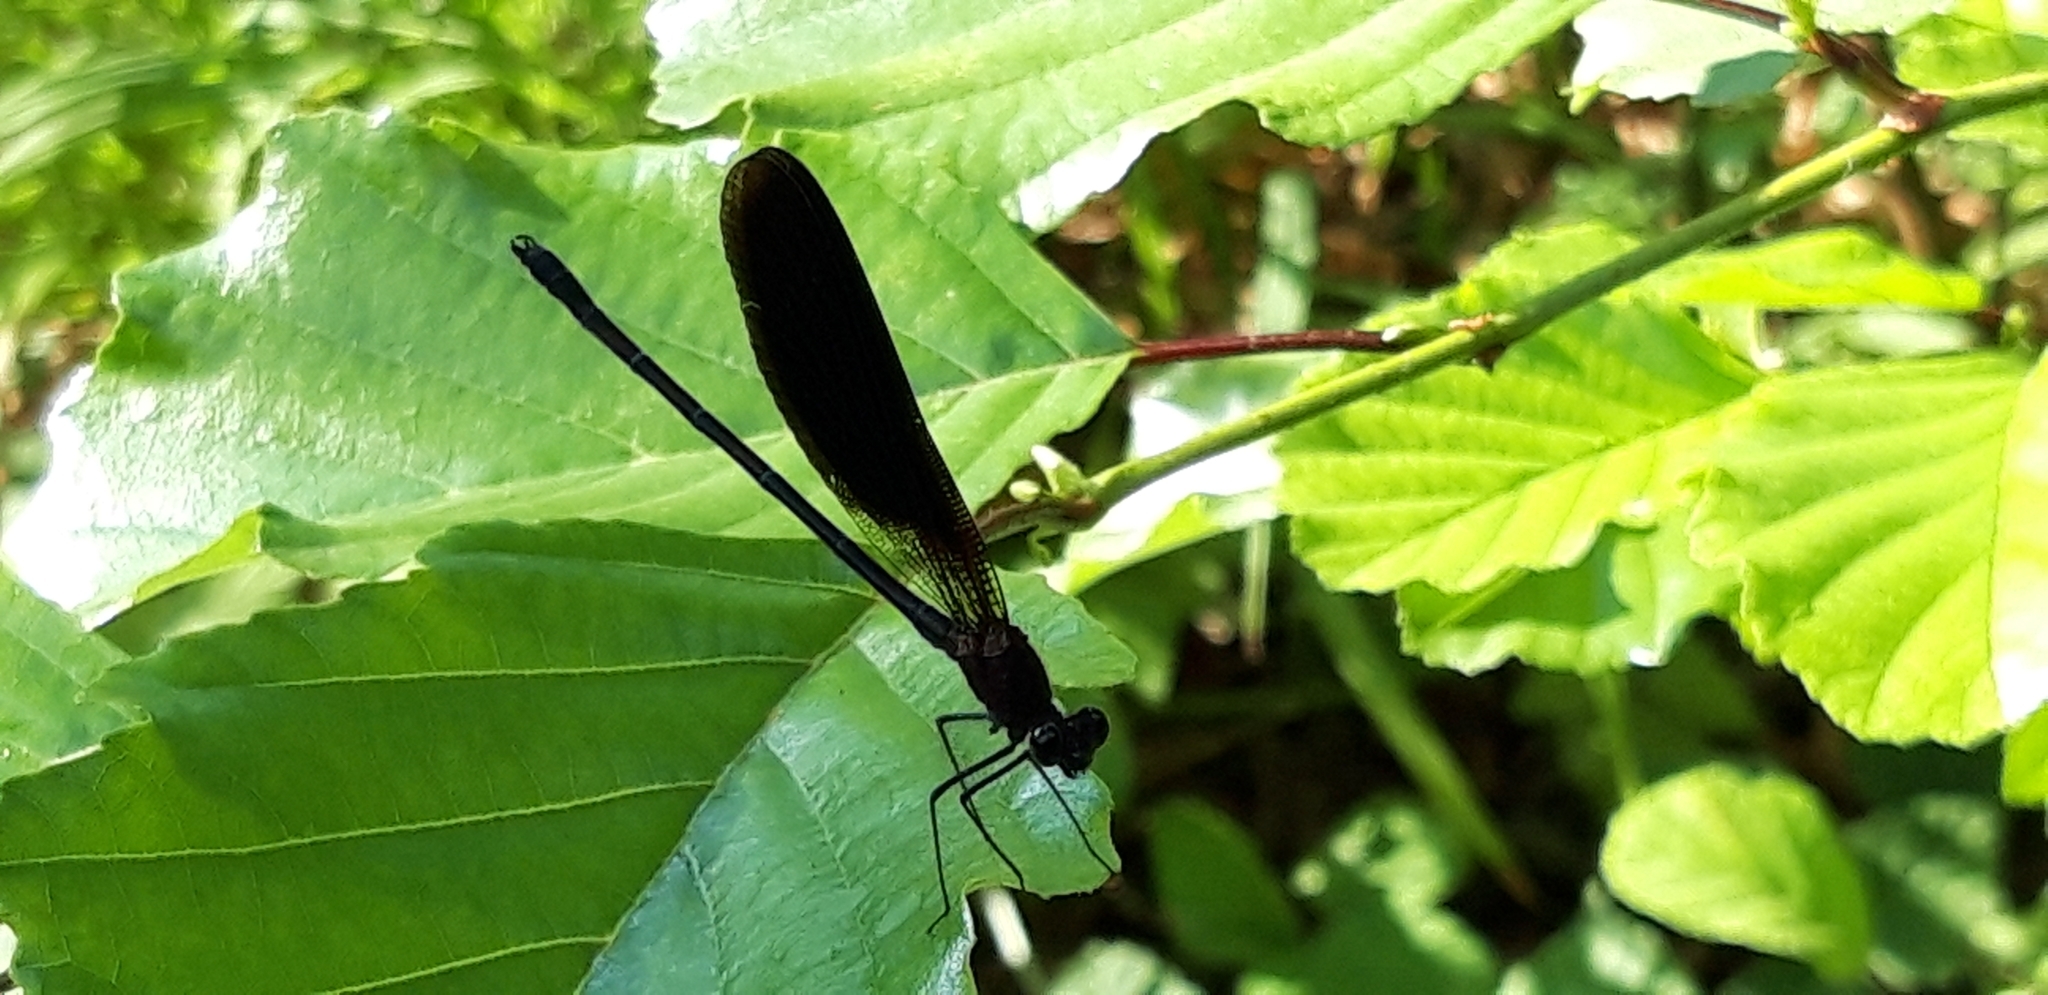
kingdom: Animalia
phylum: Arthropoda
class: Insecta
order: Odonata
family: Calopterygidae
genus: Calopteryx
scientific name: Calopteryx haemorrhoidalis
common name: Copper demoiselle
